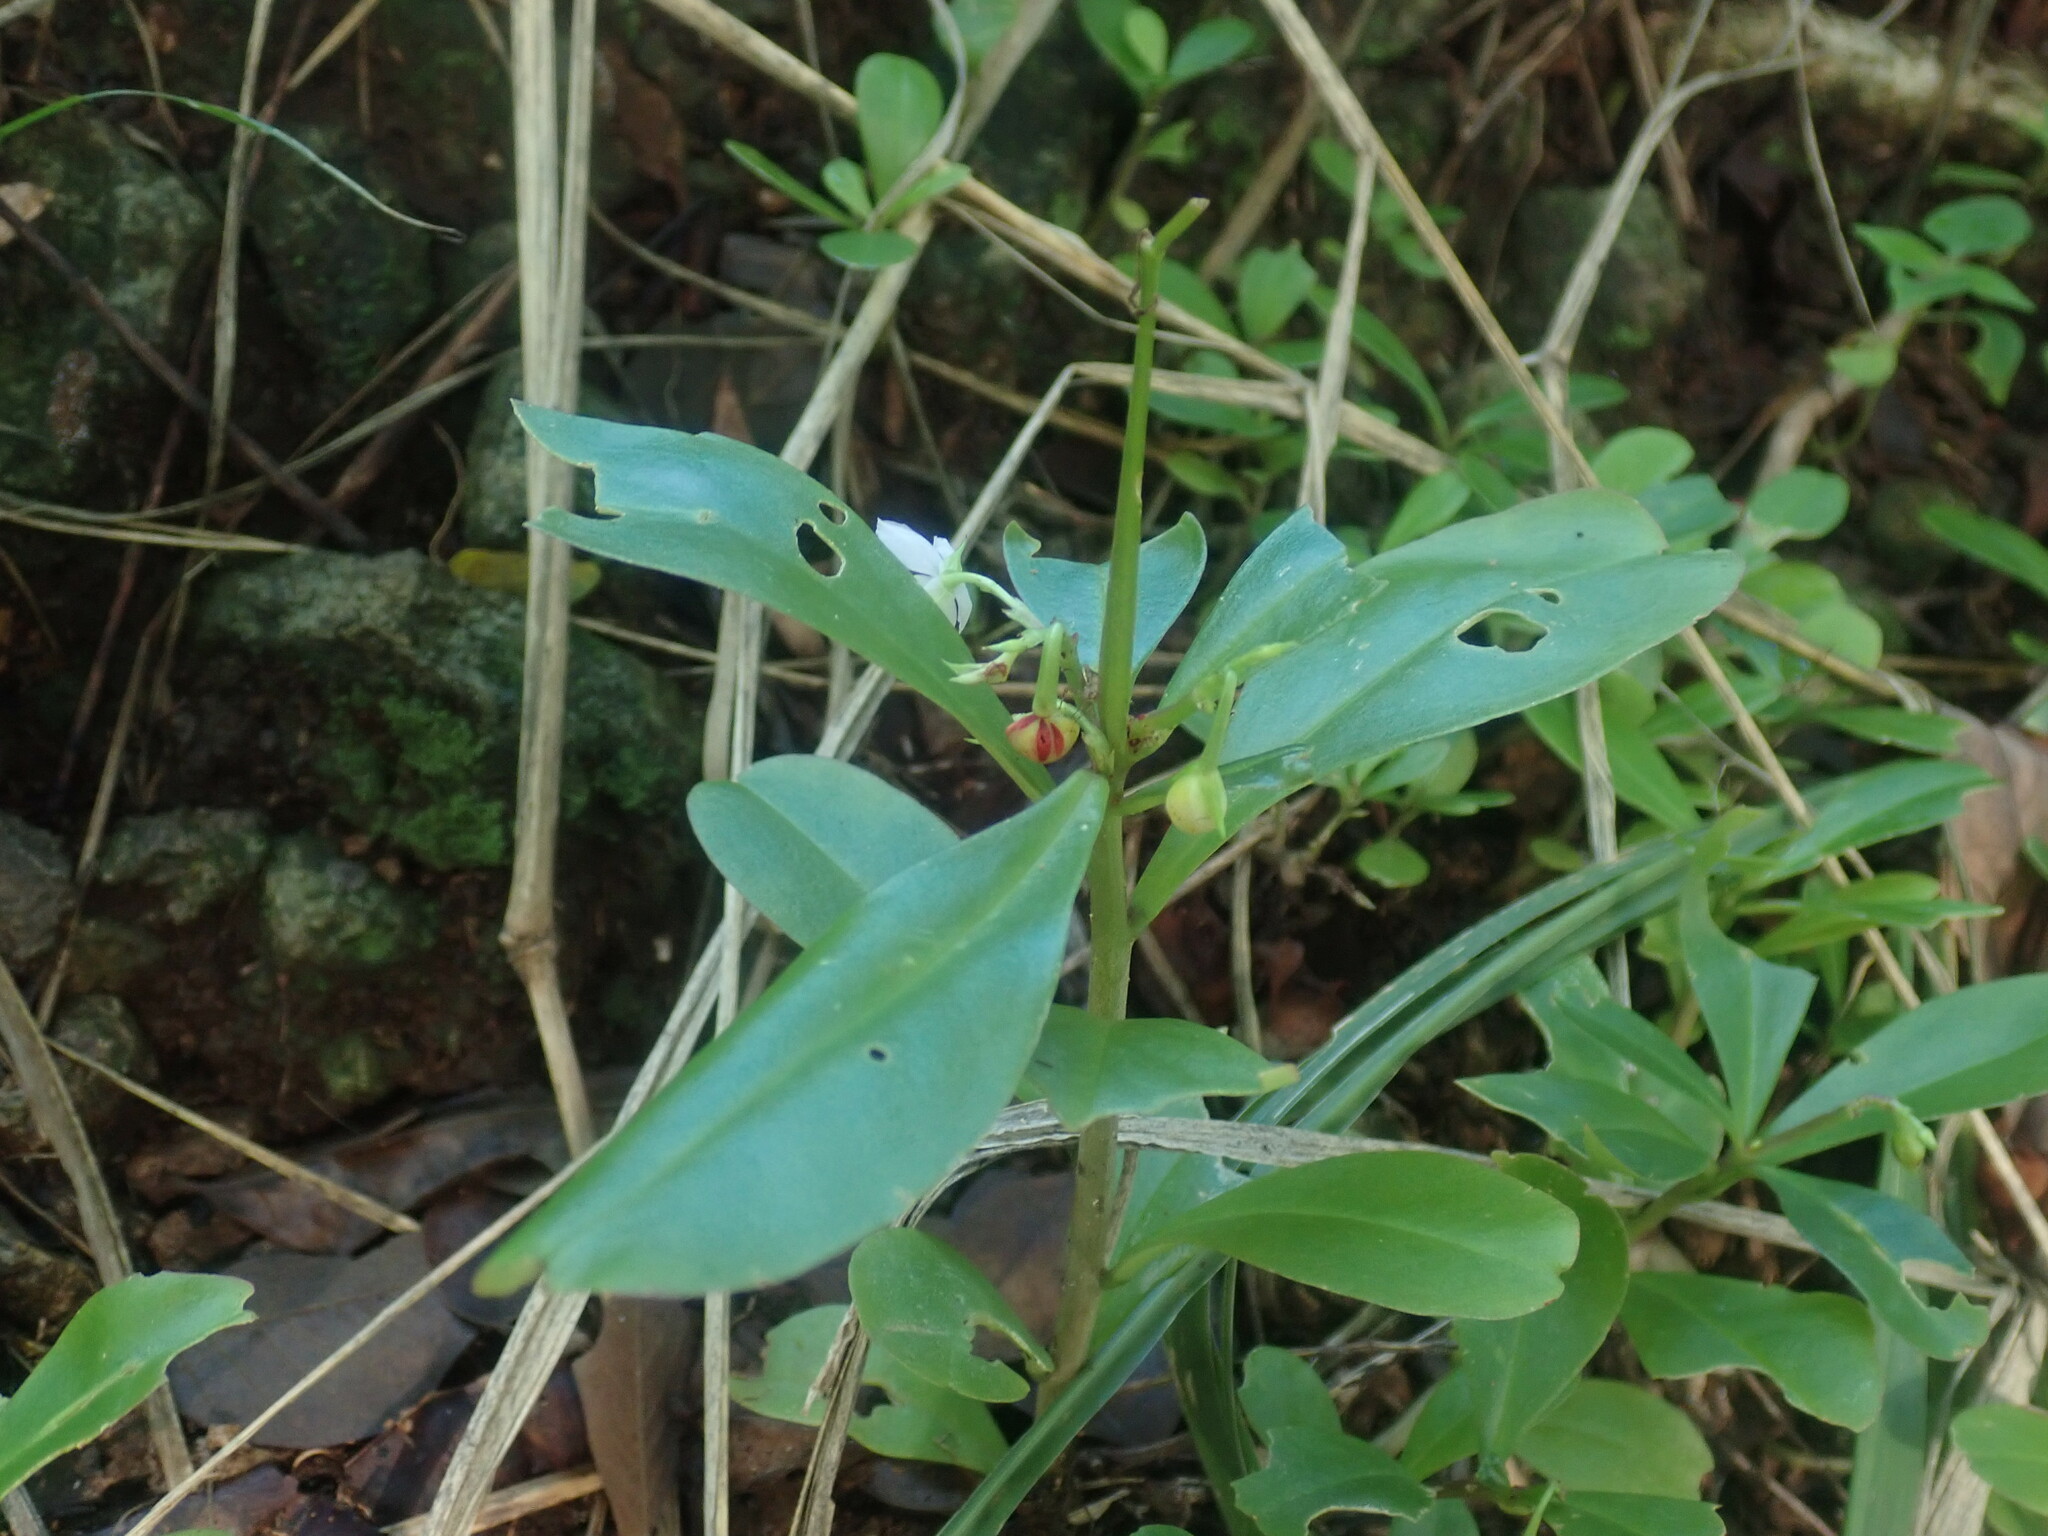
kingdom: Plantae
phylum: Tracheophyta
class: Magnoliopsida
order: Caryophyllales
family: Talinaceae
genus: Talinum
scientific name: Talinum fruticosum
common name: Verdolaga-francesa
